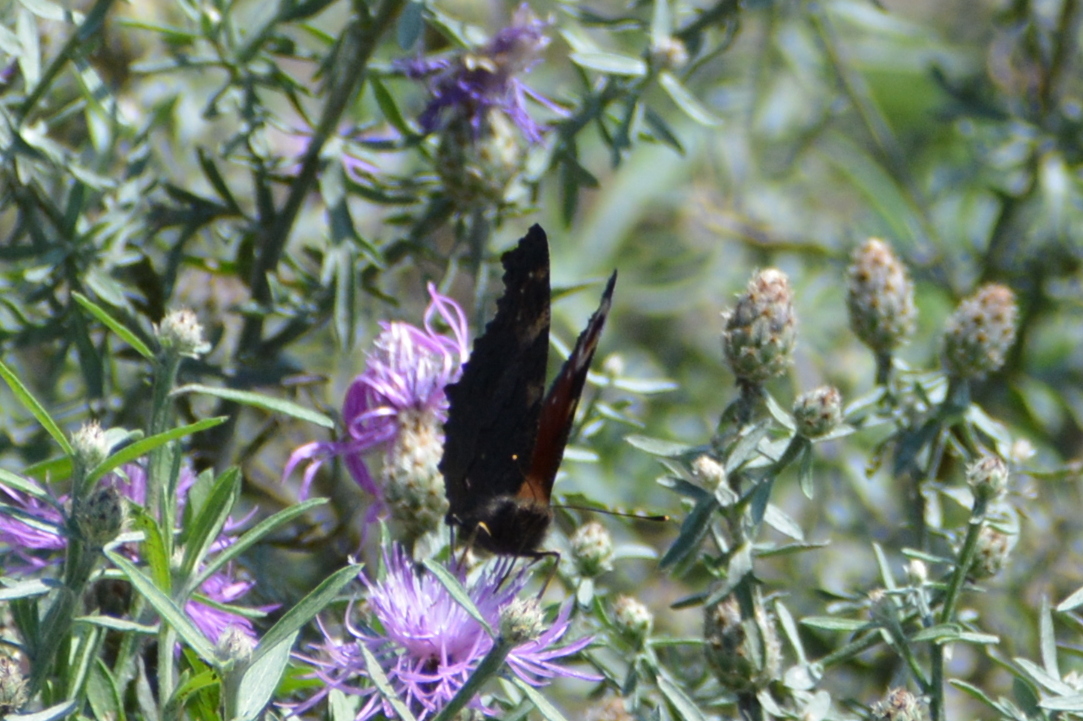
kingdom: Animalia
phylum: Arthropoda
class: Insecta
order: Lepidoptera
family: Nymphalidae
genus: Aglais
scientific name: Aglais io
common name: Peacock
